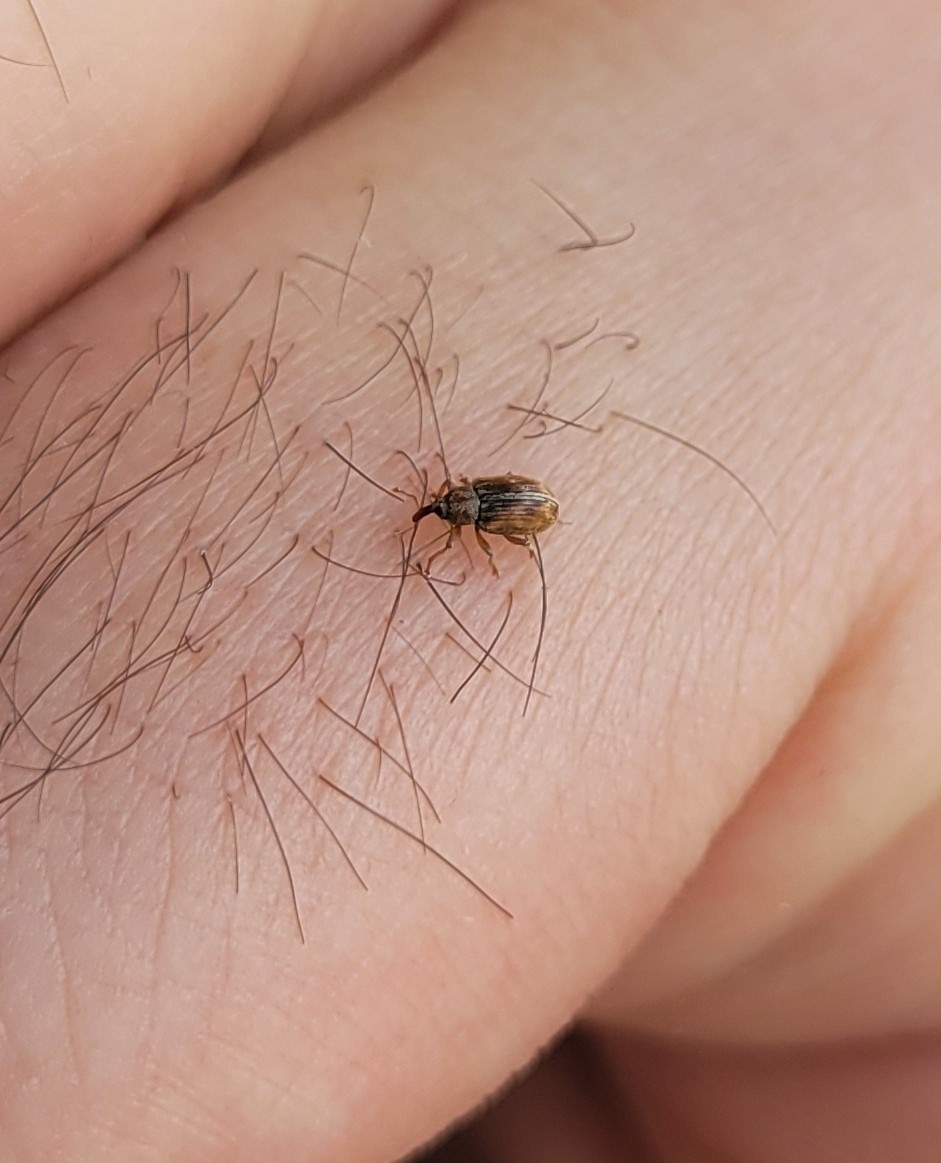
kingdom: Animalia
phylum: Arthropoda
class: Insecta
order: Coleoptera
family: Curculionidae
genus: Ellescus
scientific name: Ellescus scanicus
